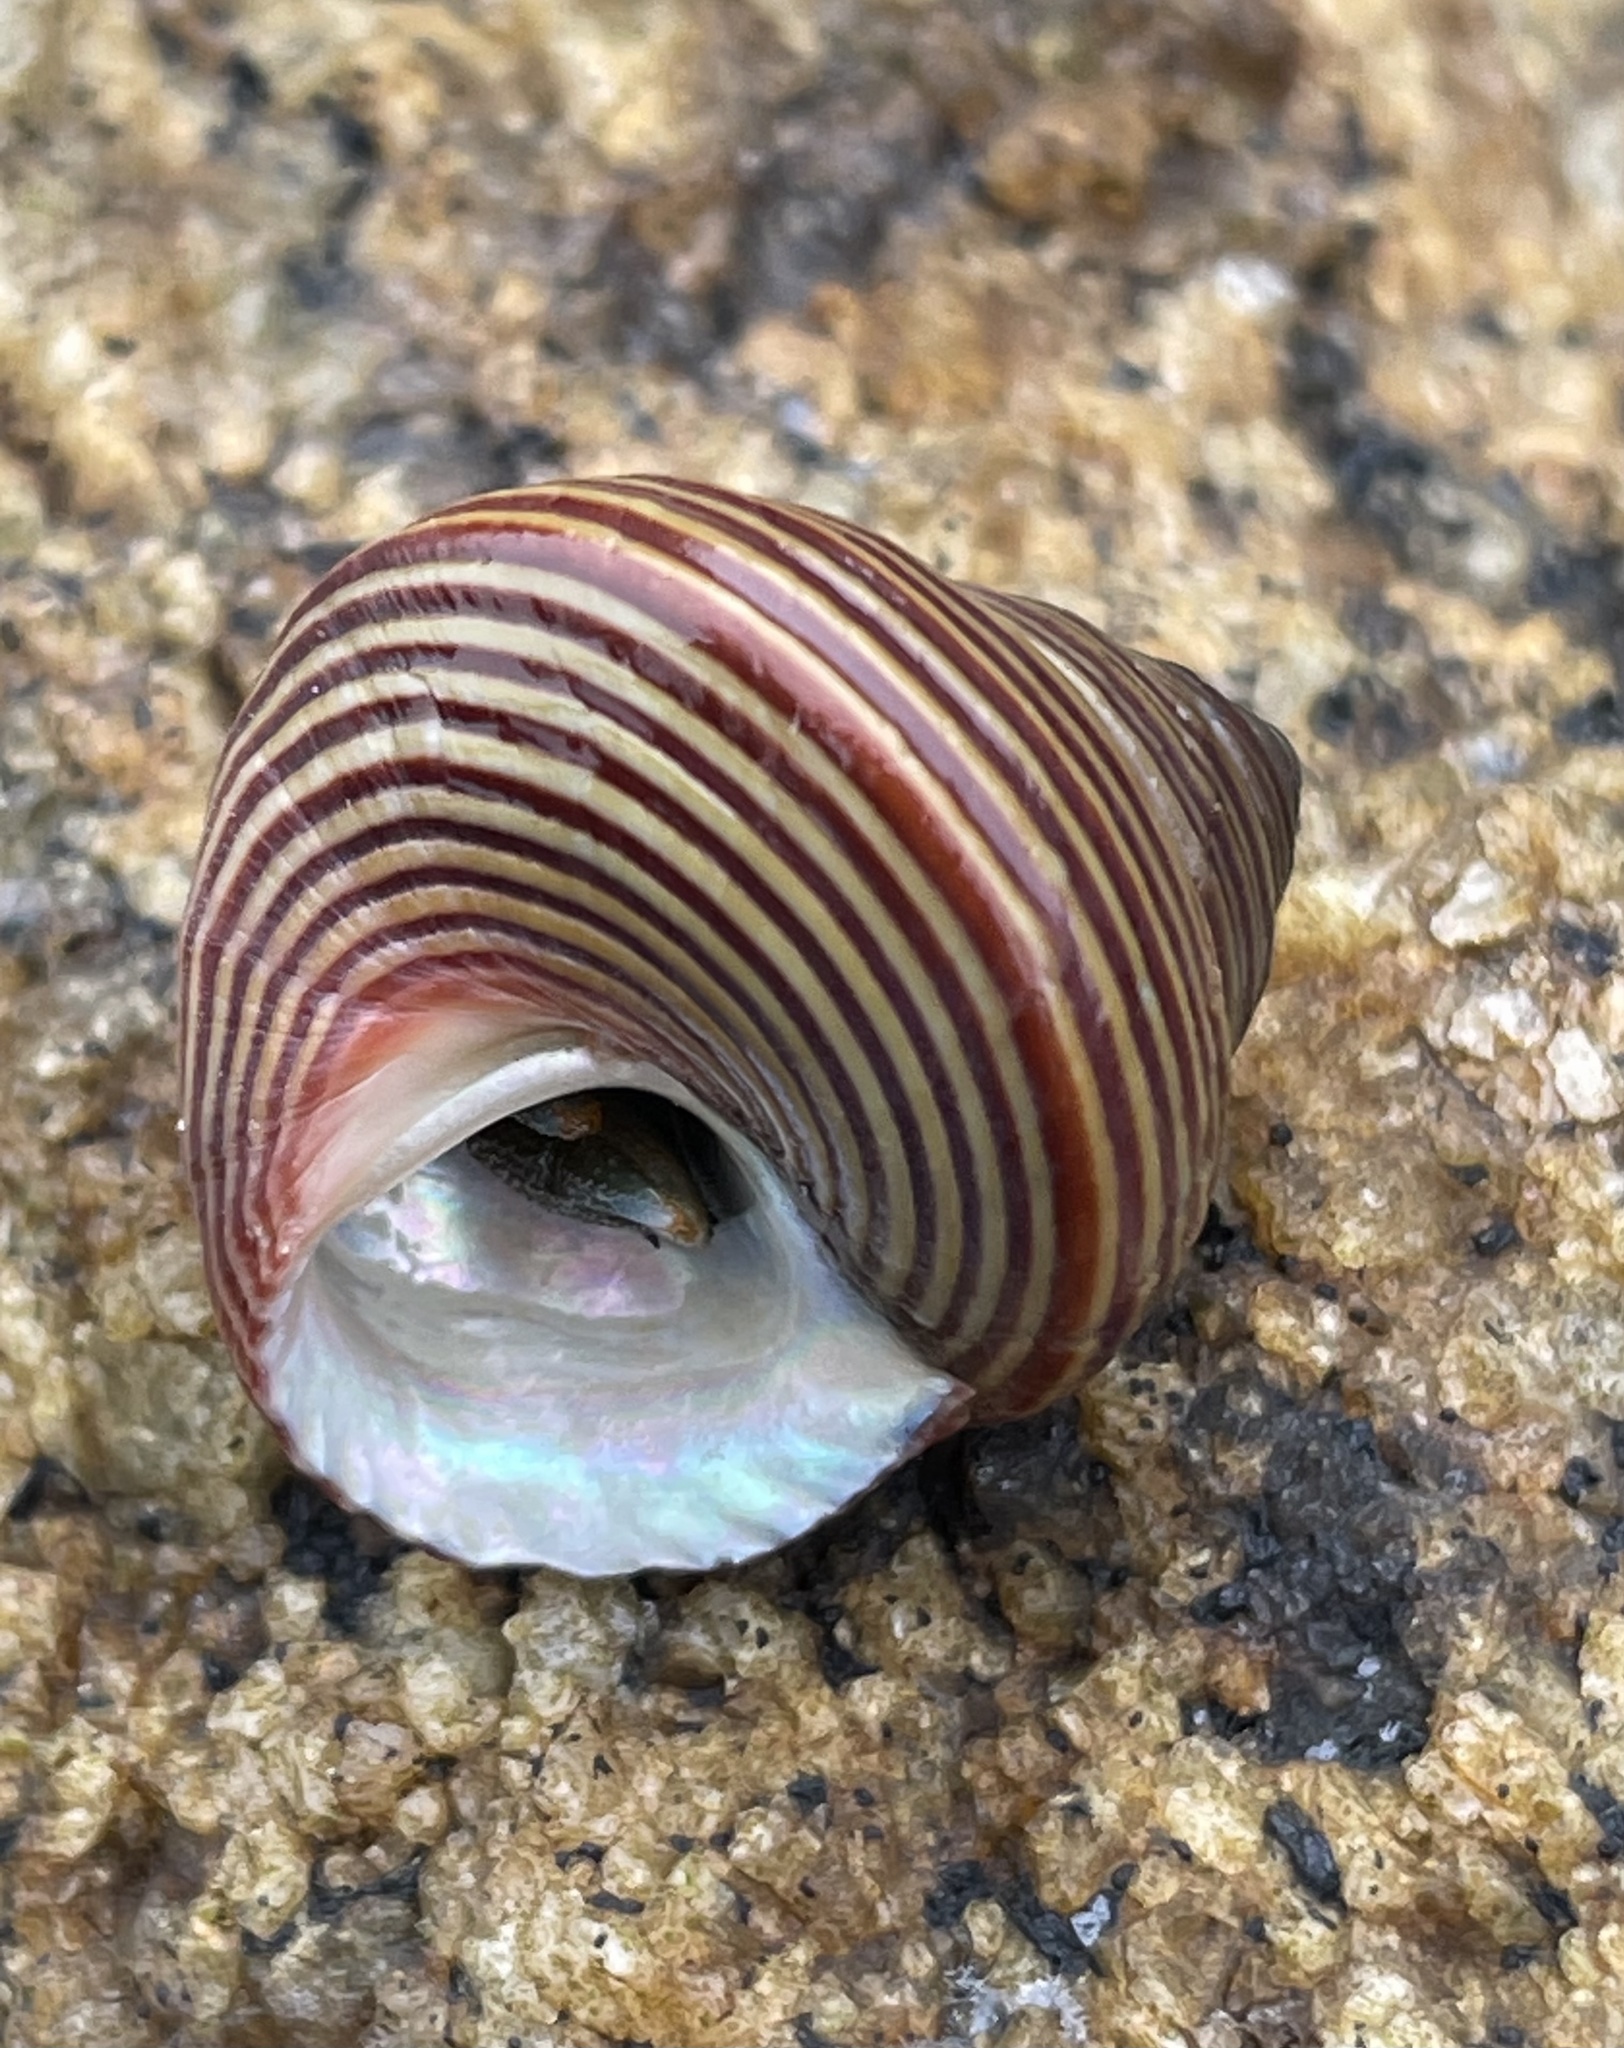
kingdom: Animalia
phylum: Mollusca
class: Gastropoda
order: Trochida
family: Calliostomatidae
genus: Calliostoma
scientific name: Calliostoma ligatum
